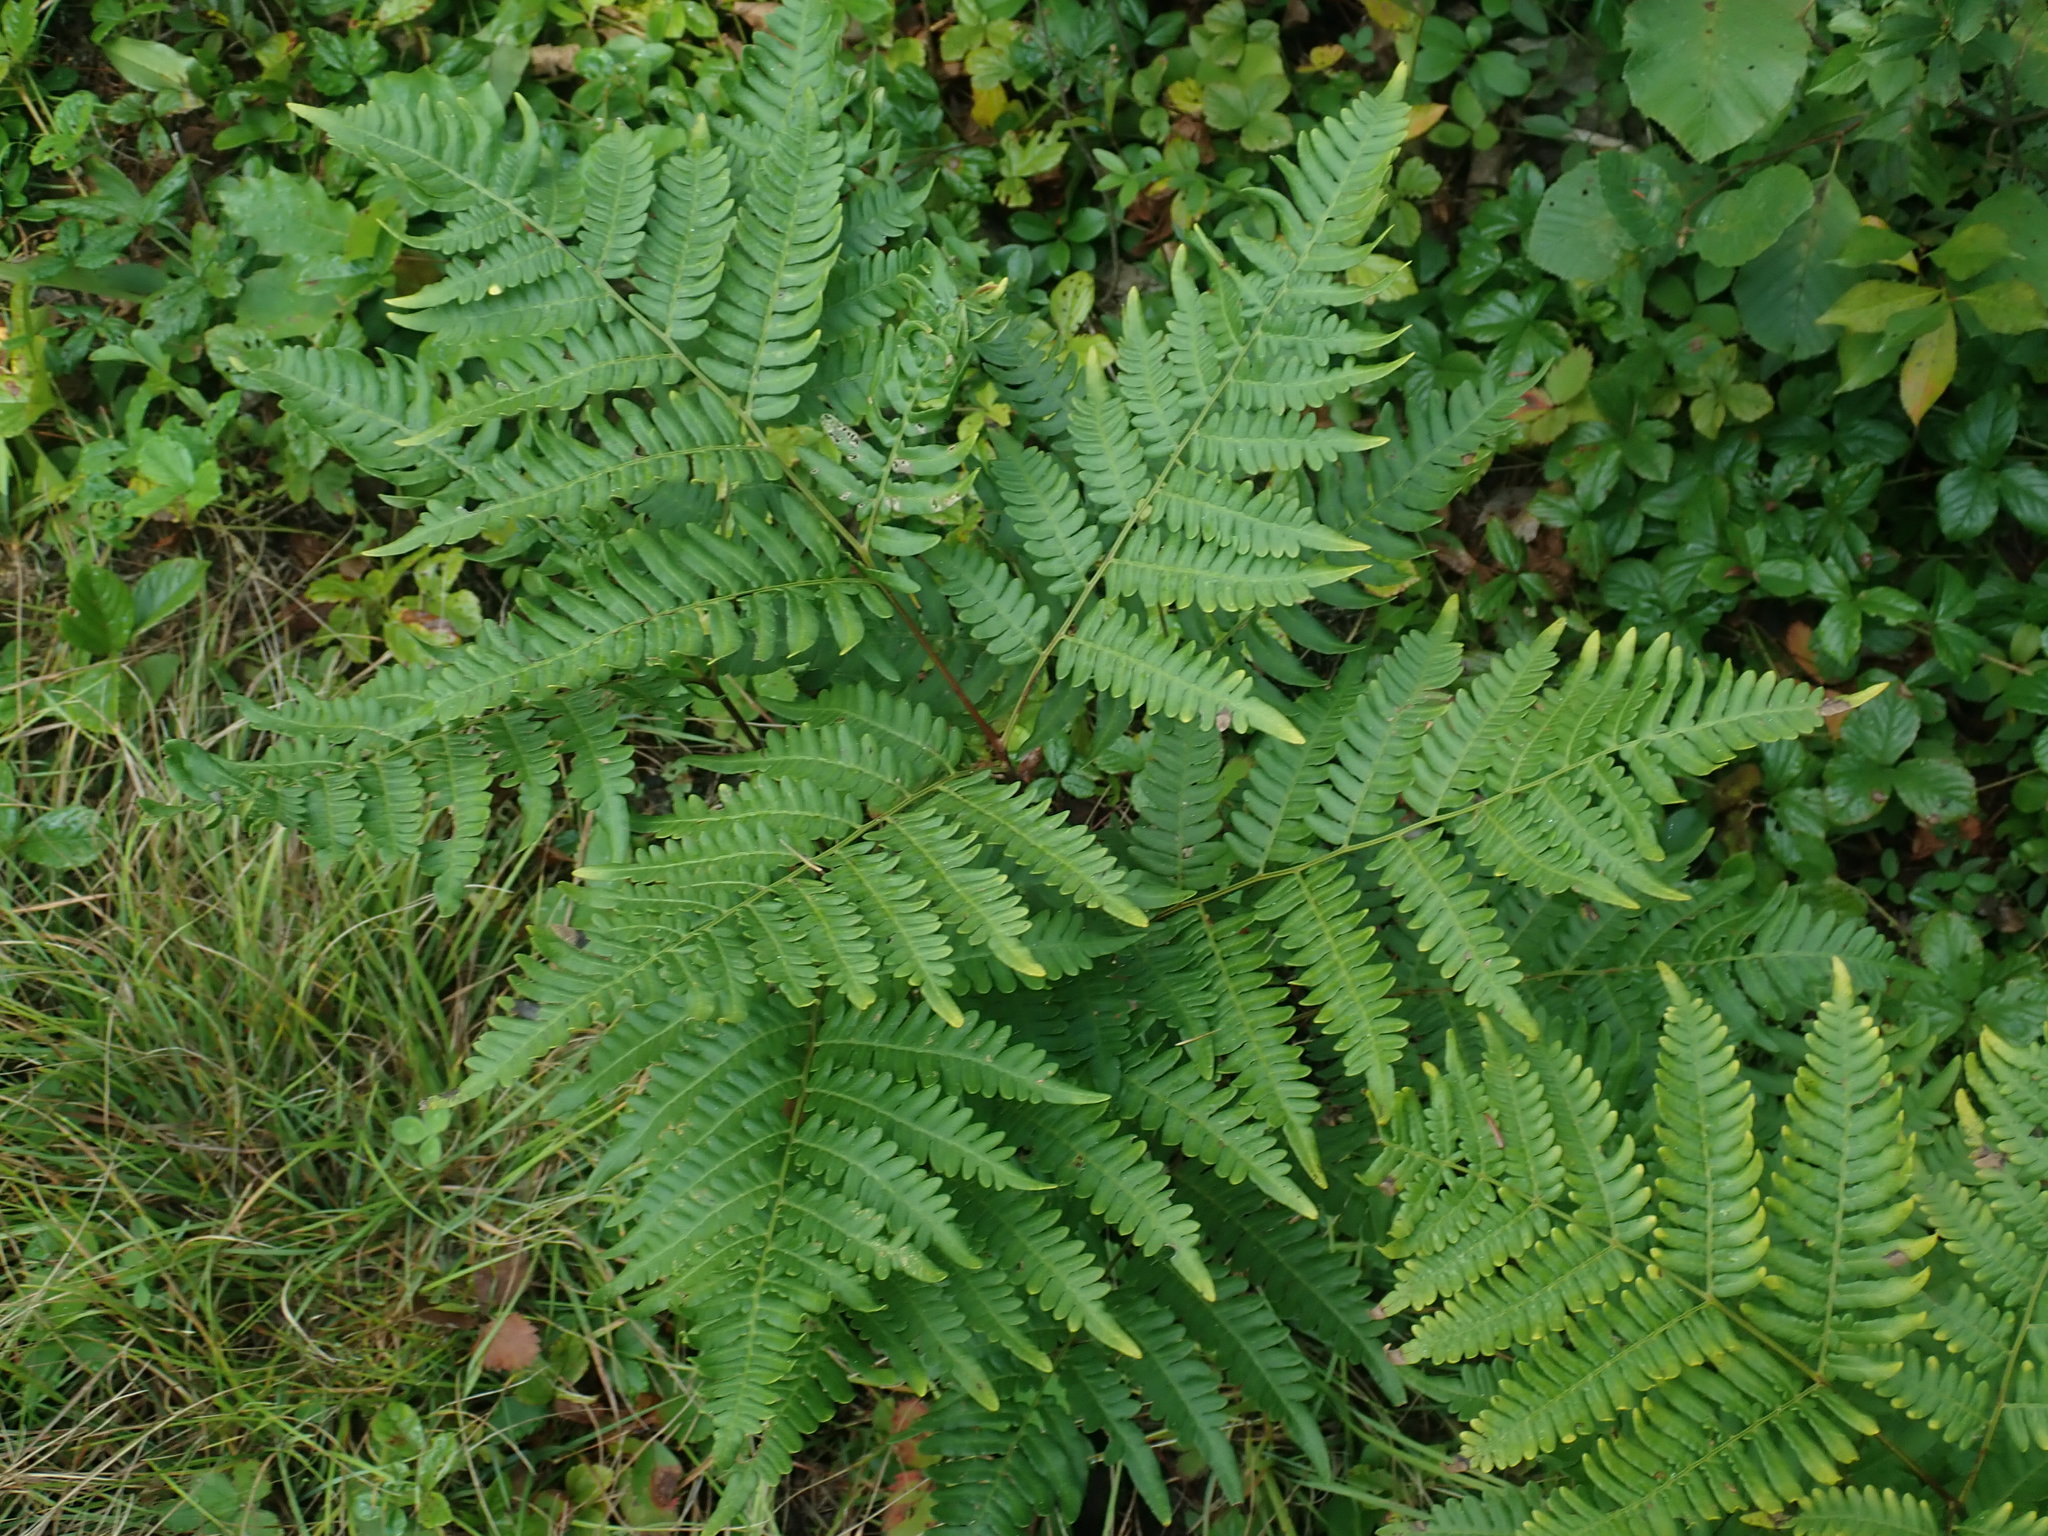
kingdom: Plantae
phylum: Tracheophyta
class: Polypodiopsida
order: Polypodiales
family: Dennstaedtiaceae
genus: Pteridium
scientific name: Pteridium aquilinum
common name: Bracken
